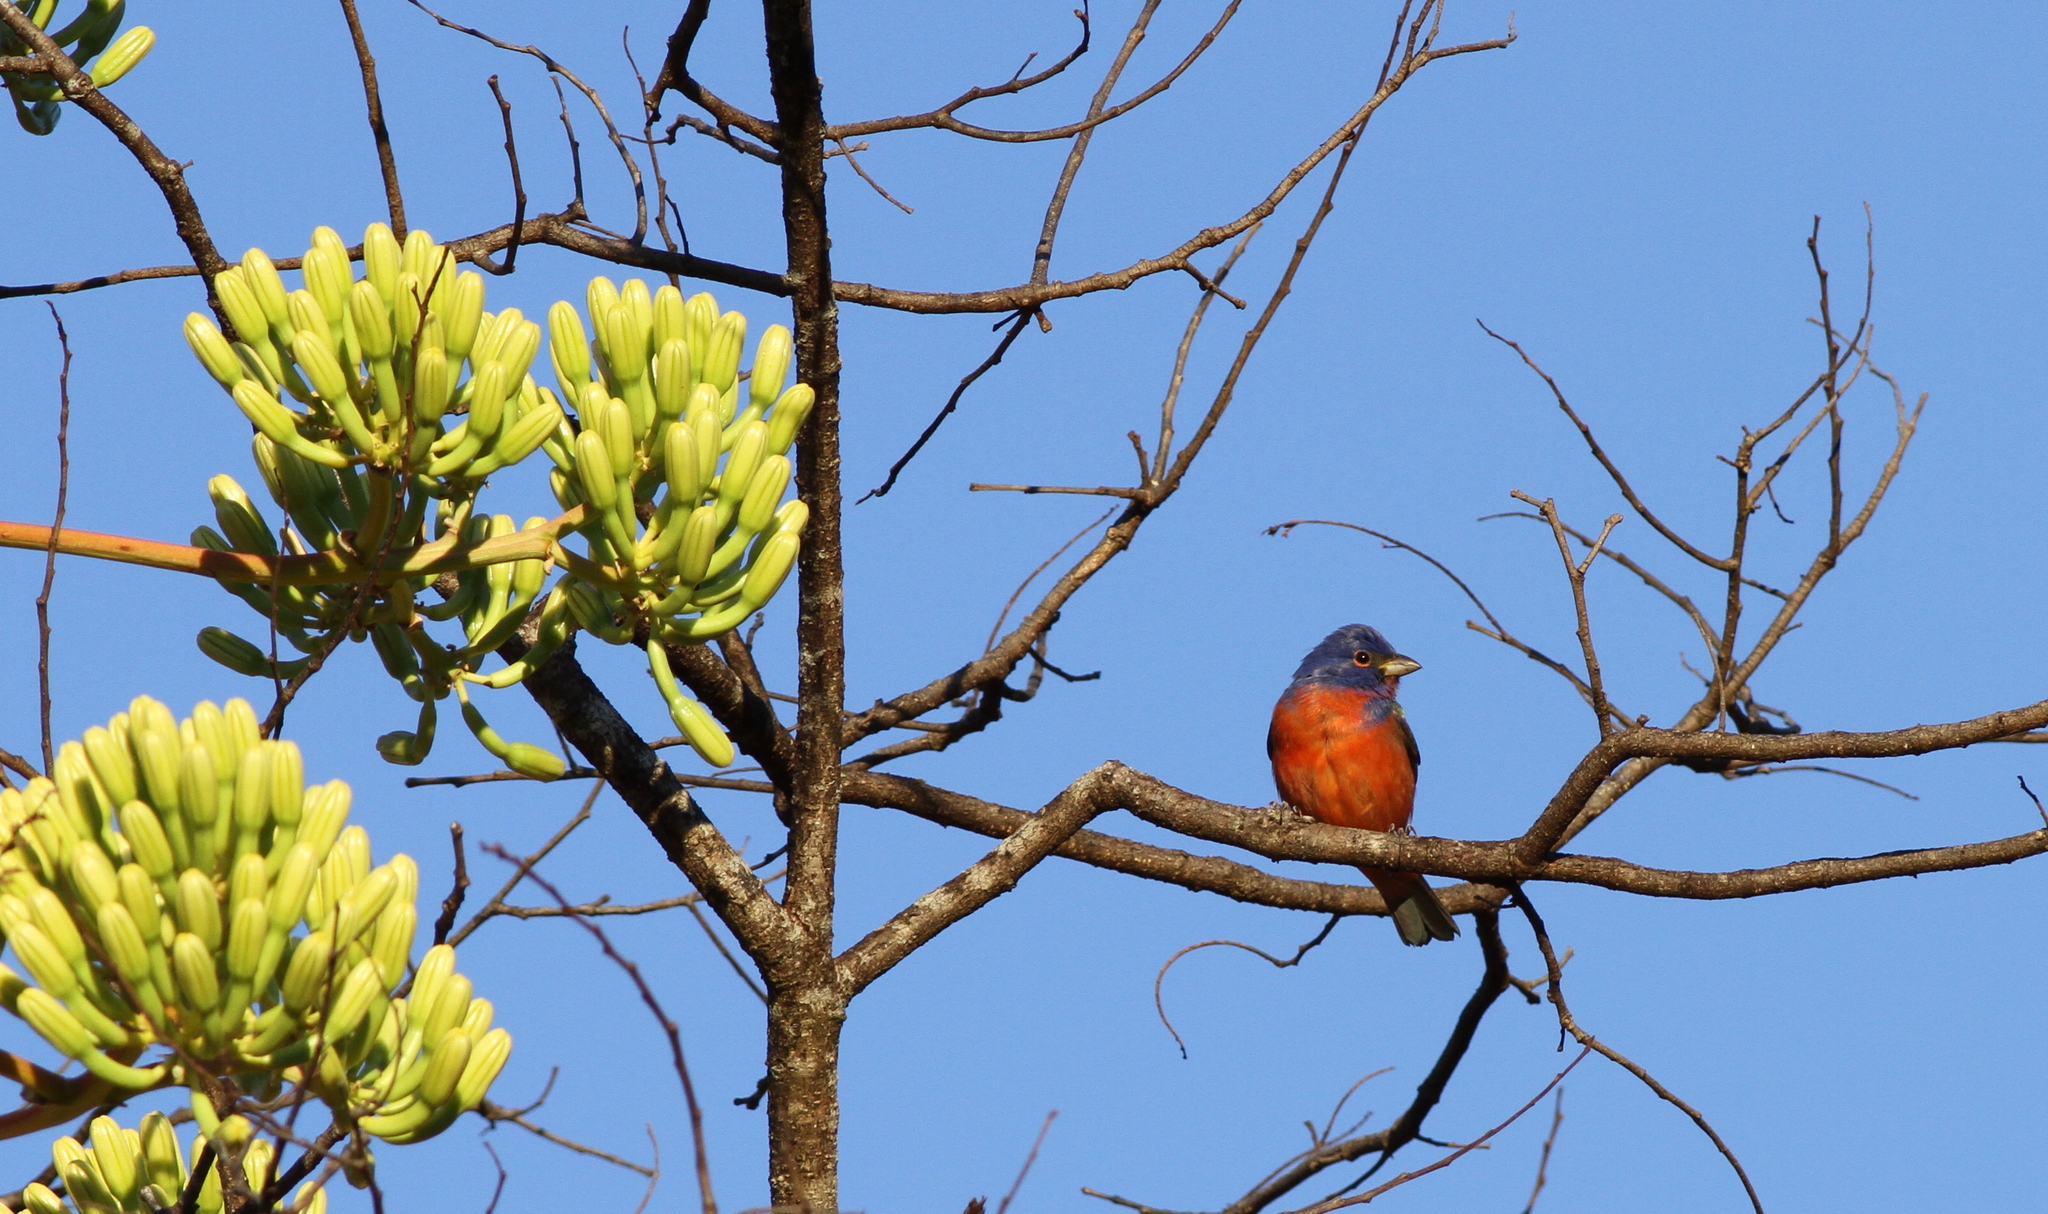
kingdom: Animalia
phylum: Chordata
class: Aves
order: Passeriformes
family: Cardinalidae
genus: Passerina
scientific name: Passerina ciris
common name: Painted bunting
